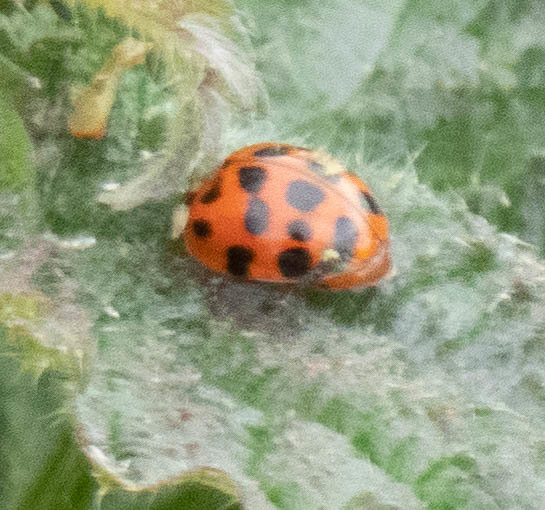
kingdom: Animalia
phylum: Arthropoda
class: Insecta
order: Coleoptera
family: Coccinellidae
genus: Harmonia
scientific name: Harmonia axyridis
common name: Harlequin ladybird
